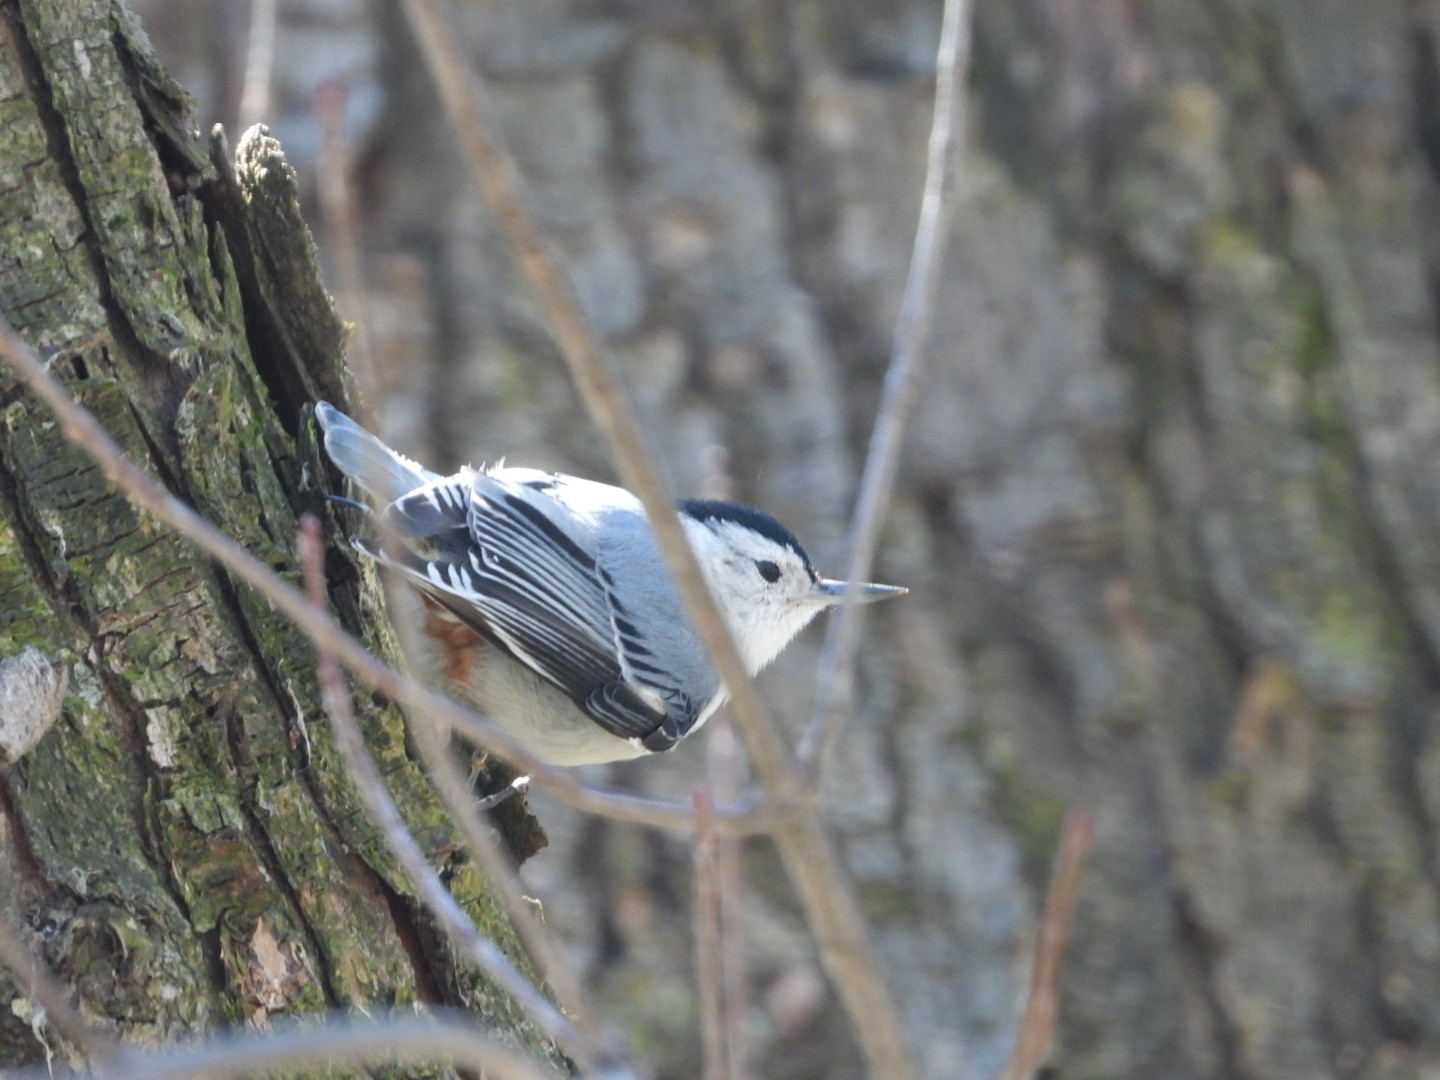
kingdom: Animalia
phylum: Chordata
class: Aves
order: Passeriformes
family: Sittidae
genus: Sitta
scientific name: Sitta carolinensis
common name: White-breasted nuthatch
